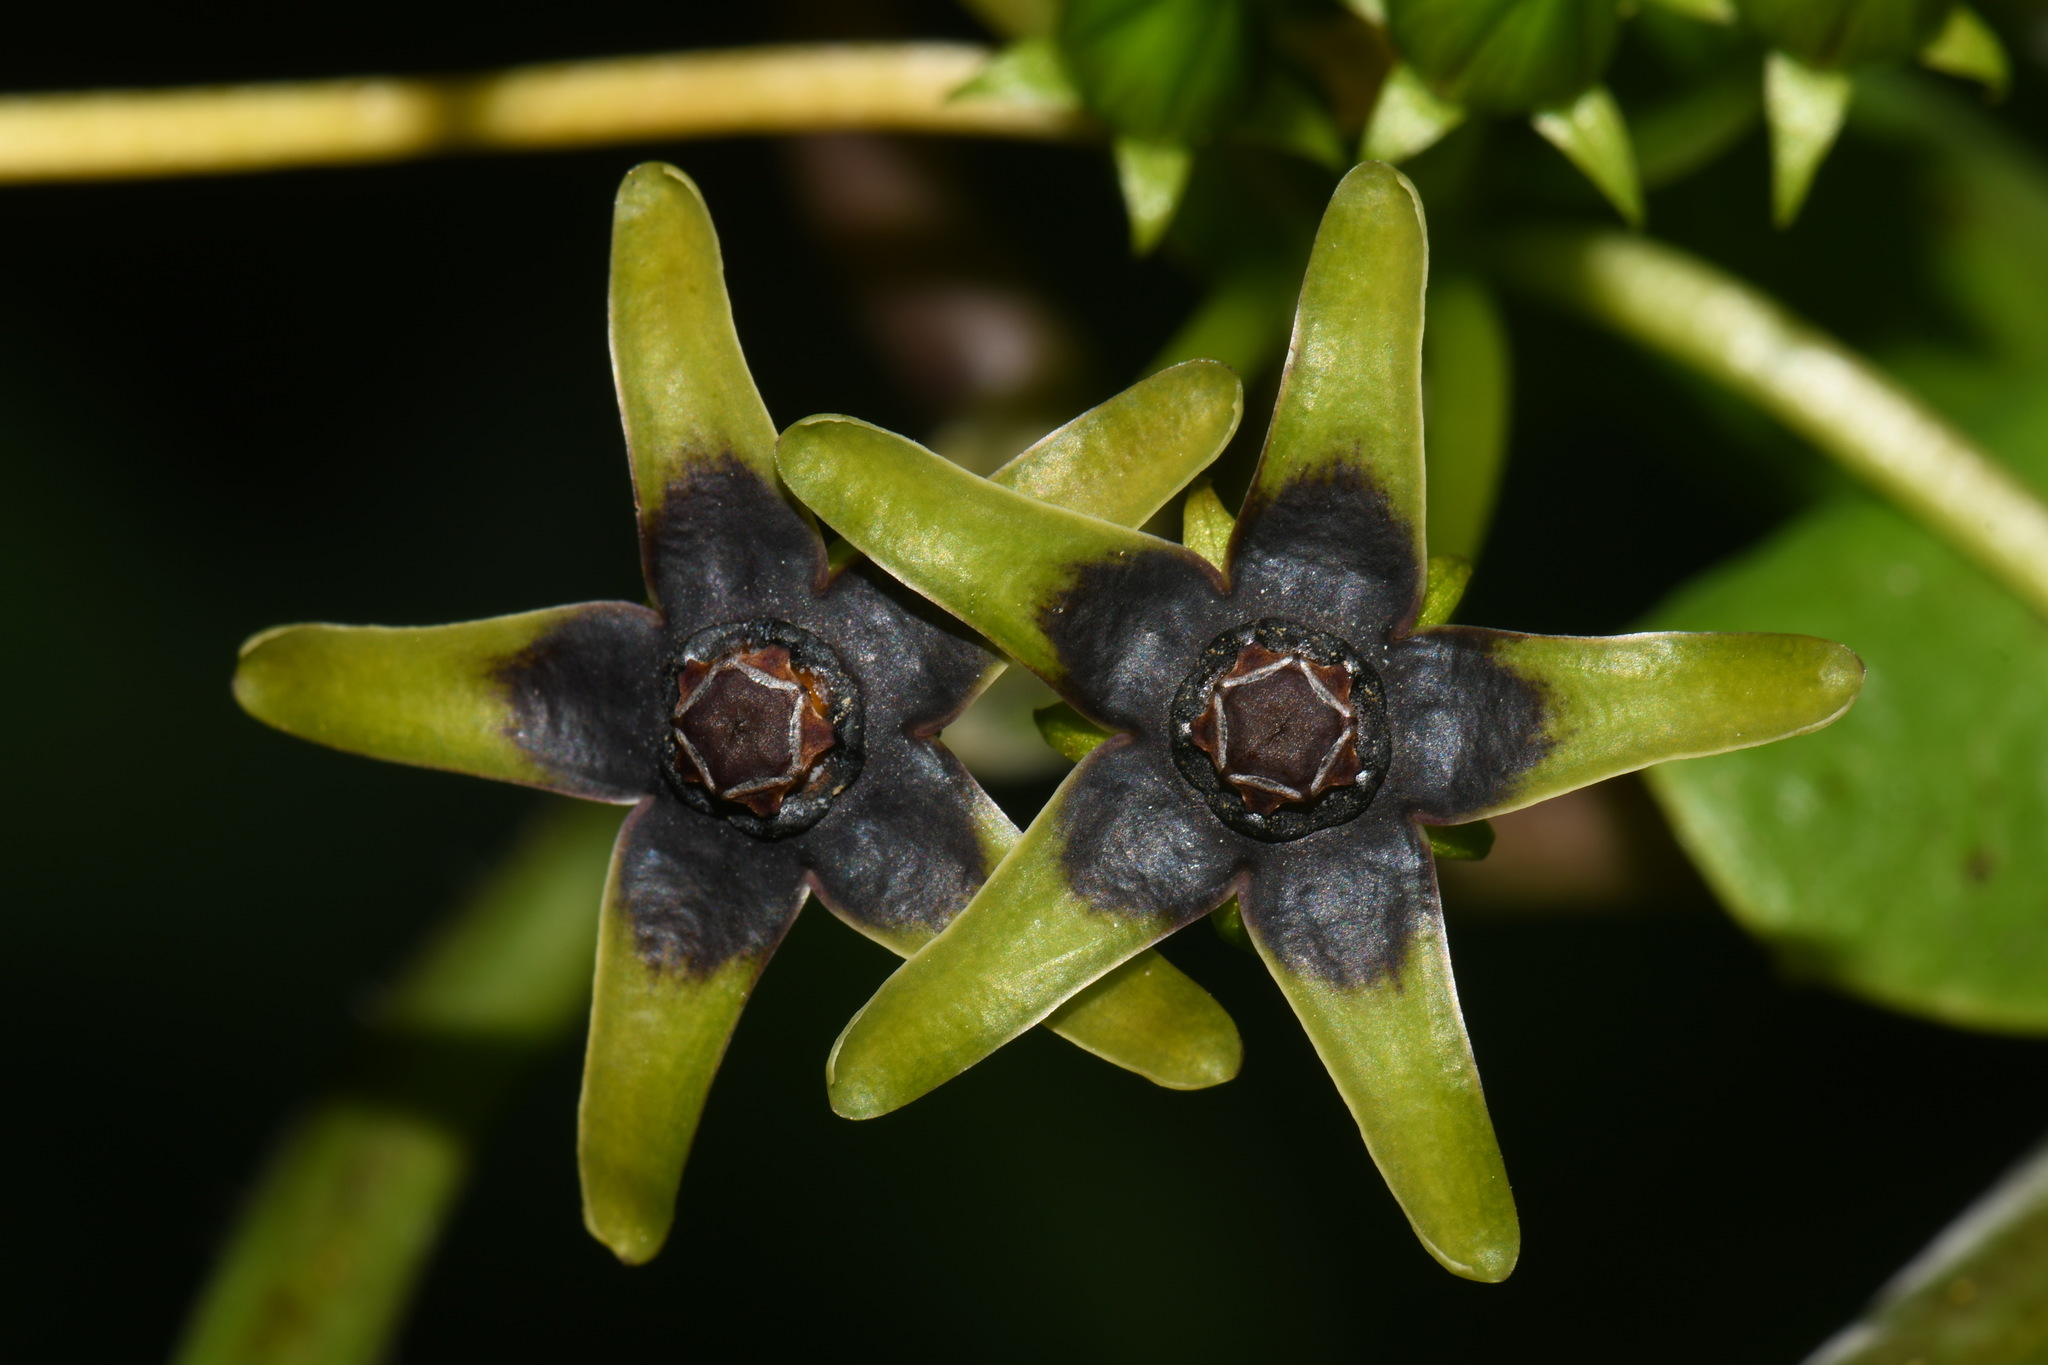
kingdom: Plantae
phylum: Tracheophyta
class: Magnoliopsida
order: Gentianales
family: Apocynaceae
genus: Gonolobus
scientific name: Gonolobus suberosus
